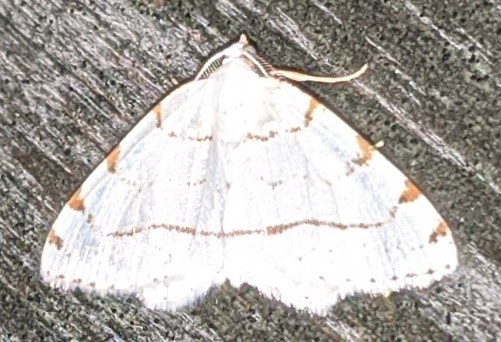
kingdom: Animalia
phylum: Arthropoda
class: Insecta
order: Lepidoptera
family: Geometridae
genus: Macaria
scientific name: Macaria pustularia
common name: Lesser maple spanworm moth
